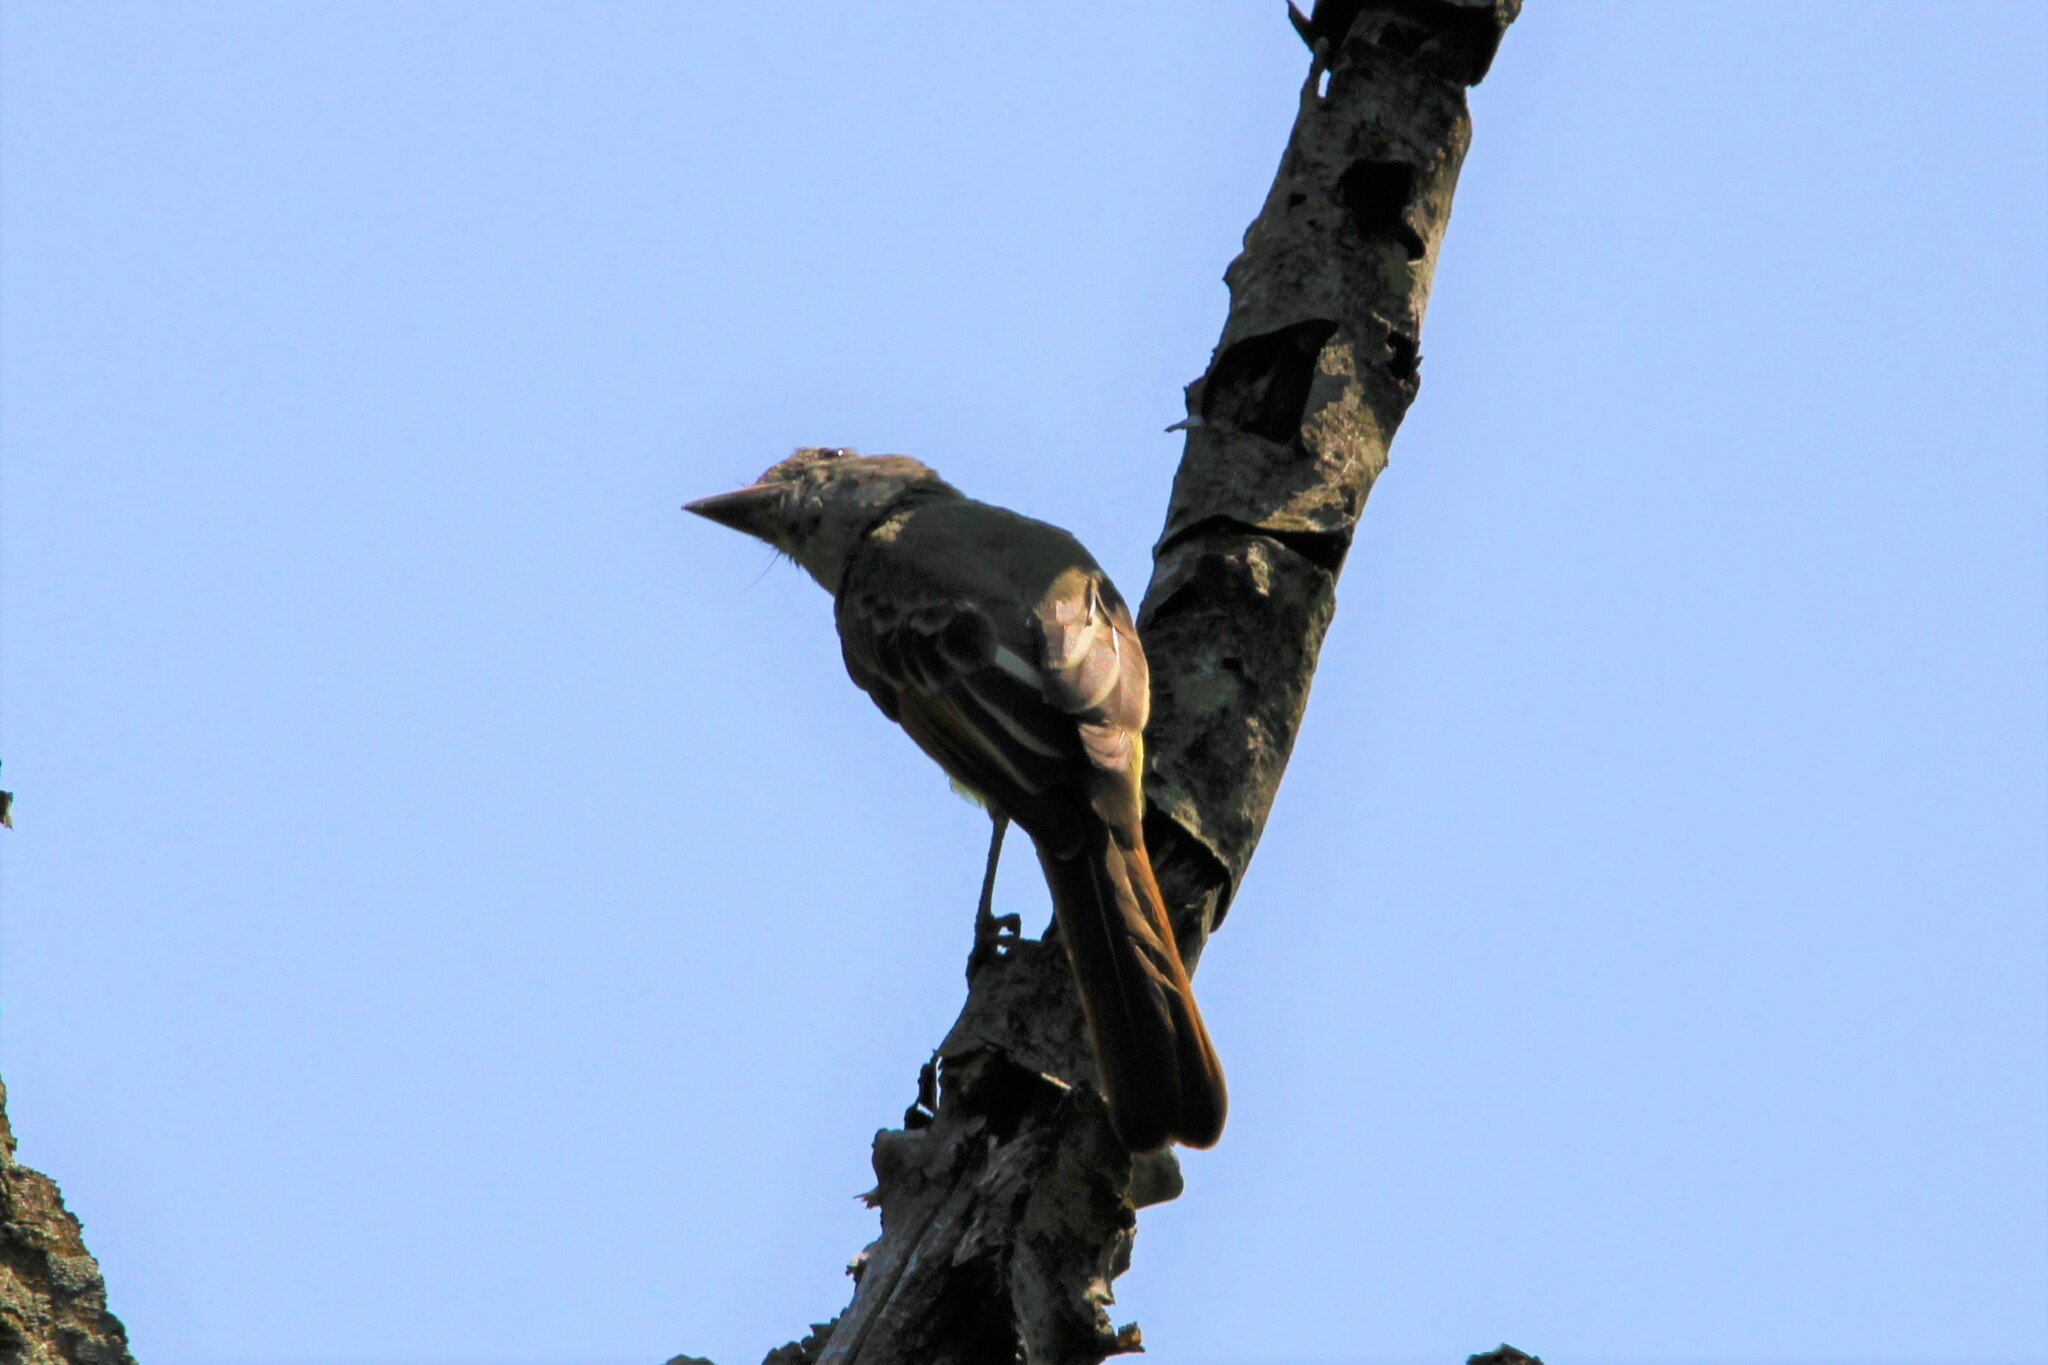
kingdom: Animalia
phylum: Chordata
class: Aves
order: Passeriformes
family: Tyrannidae
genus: Myiarchus
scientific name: Myiarchus crinitus
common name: Great crested flycatcher
